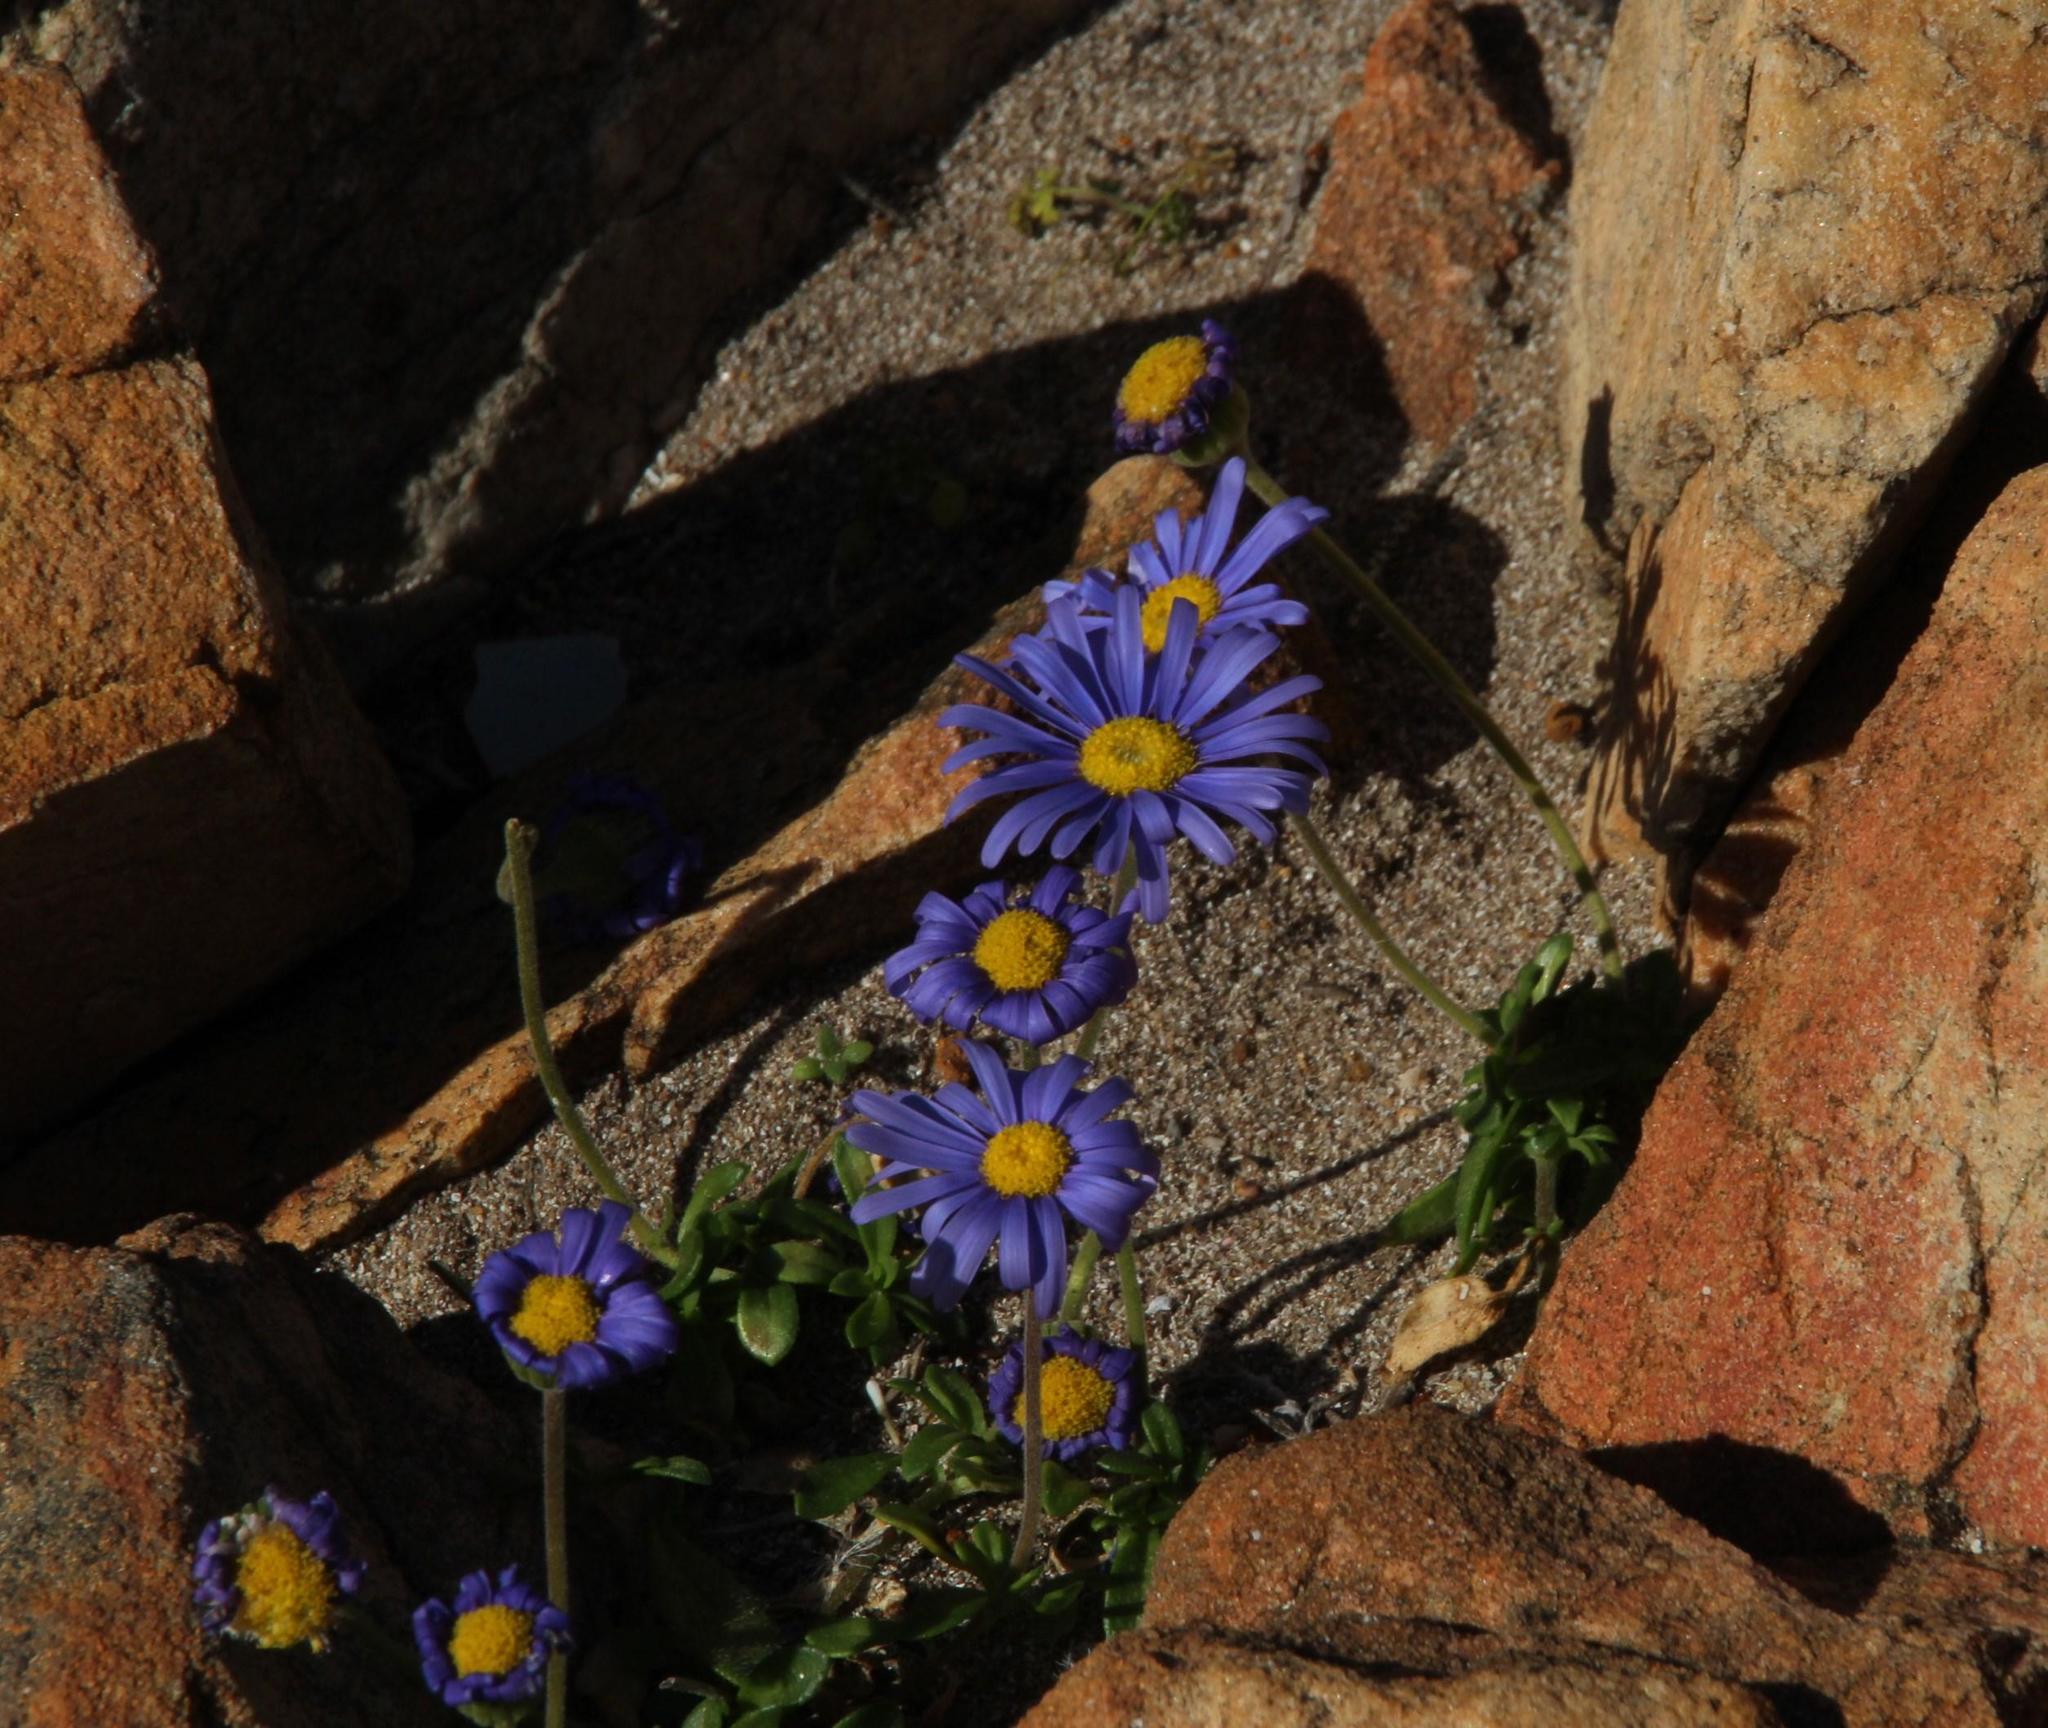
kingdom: Plantae
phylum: Tracheophyta
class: Magnoliopsida
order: Asterales
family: Asteraceae
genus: Felicia
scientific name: Felicia amoena
